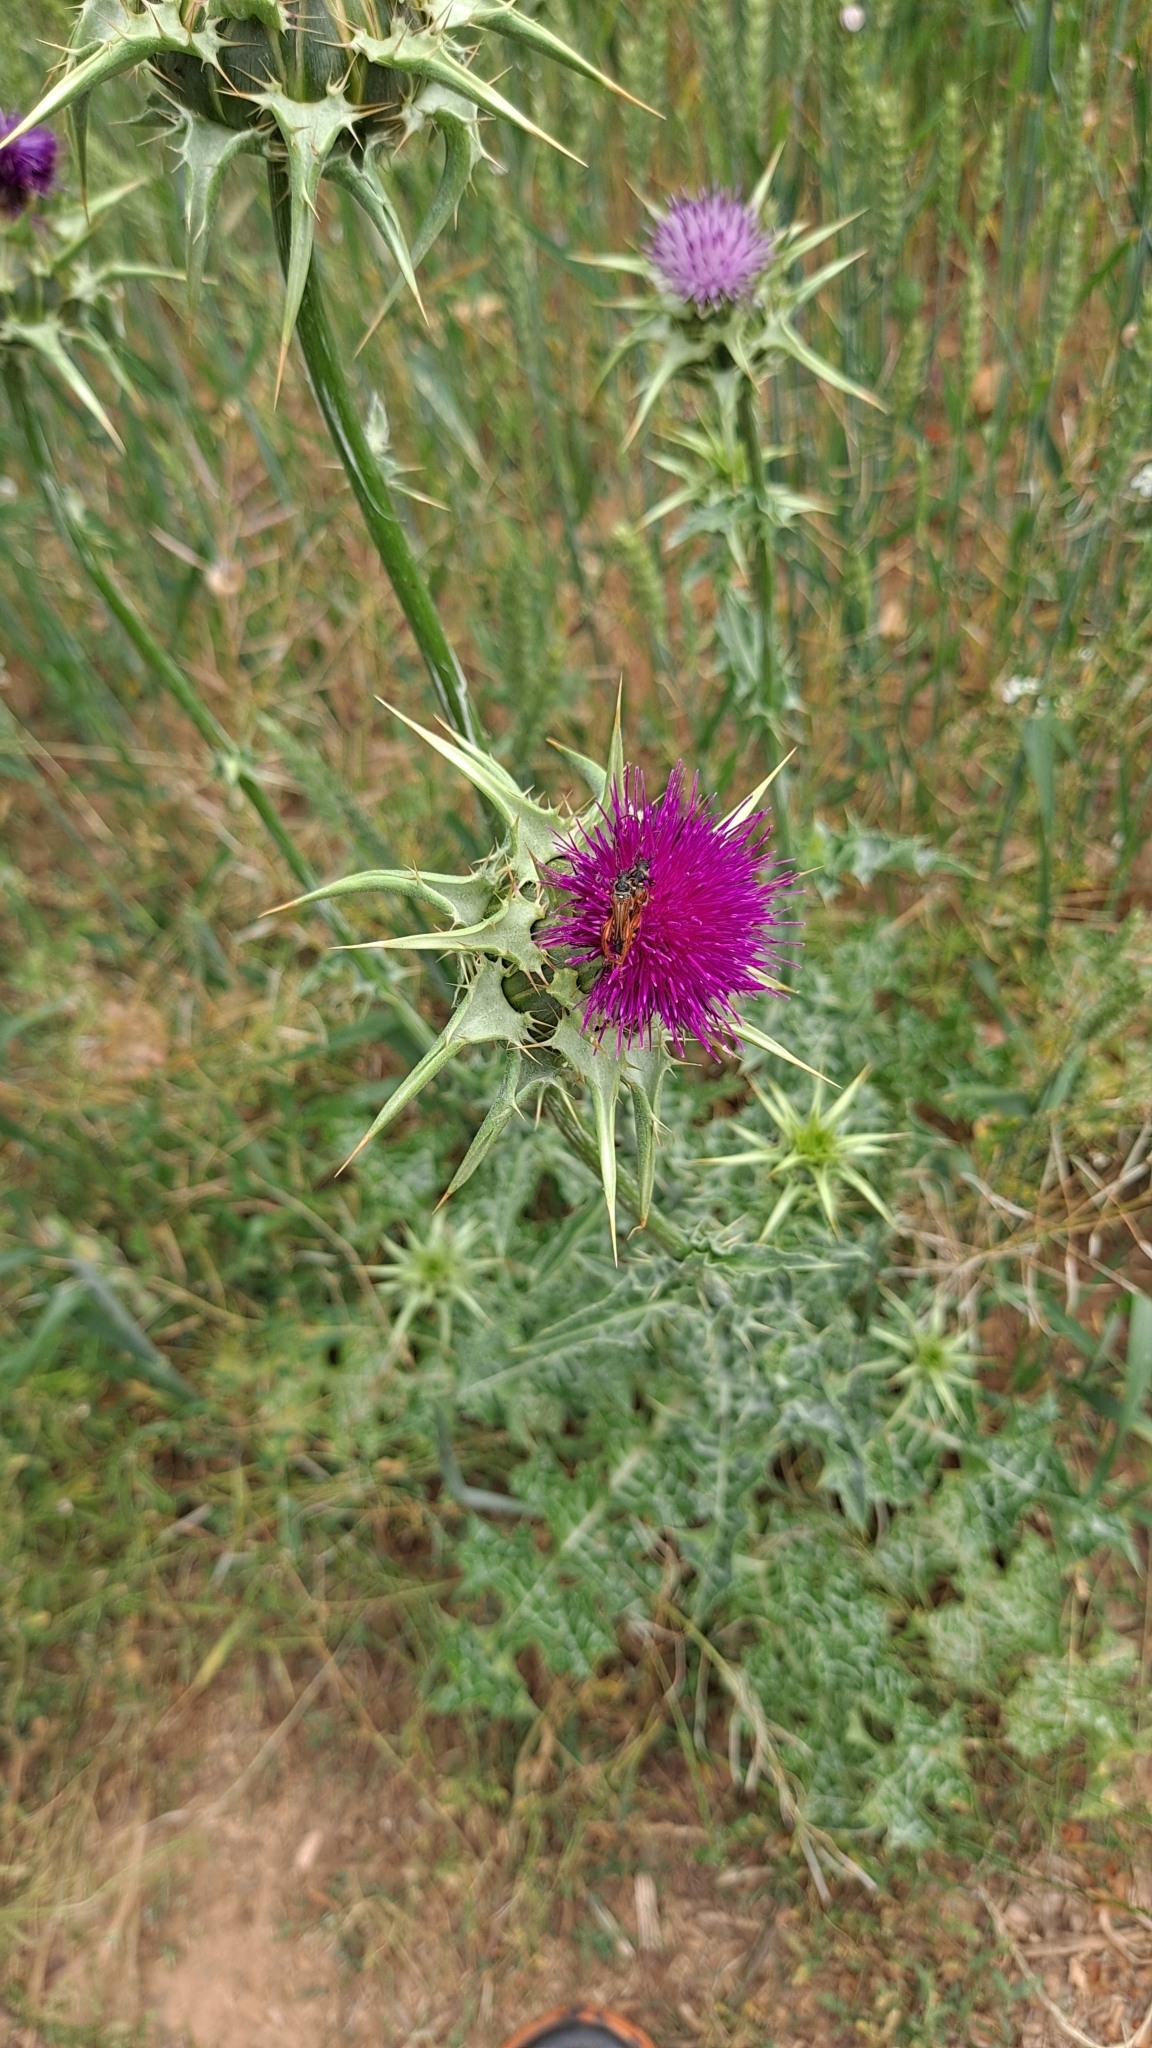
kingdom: Plantae
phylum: Tracheophyta
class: Magnoliopsida
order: Asterales
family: Asteraceae
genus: Silybum
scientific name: Silybum marianum
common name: Milk thistle
